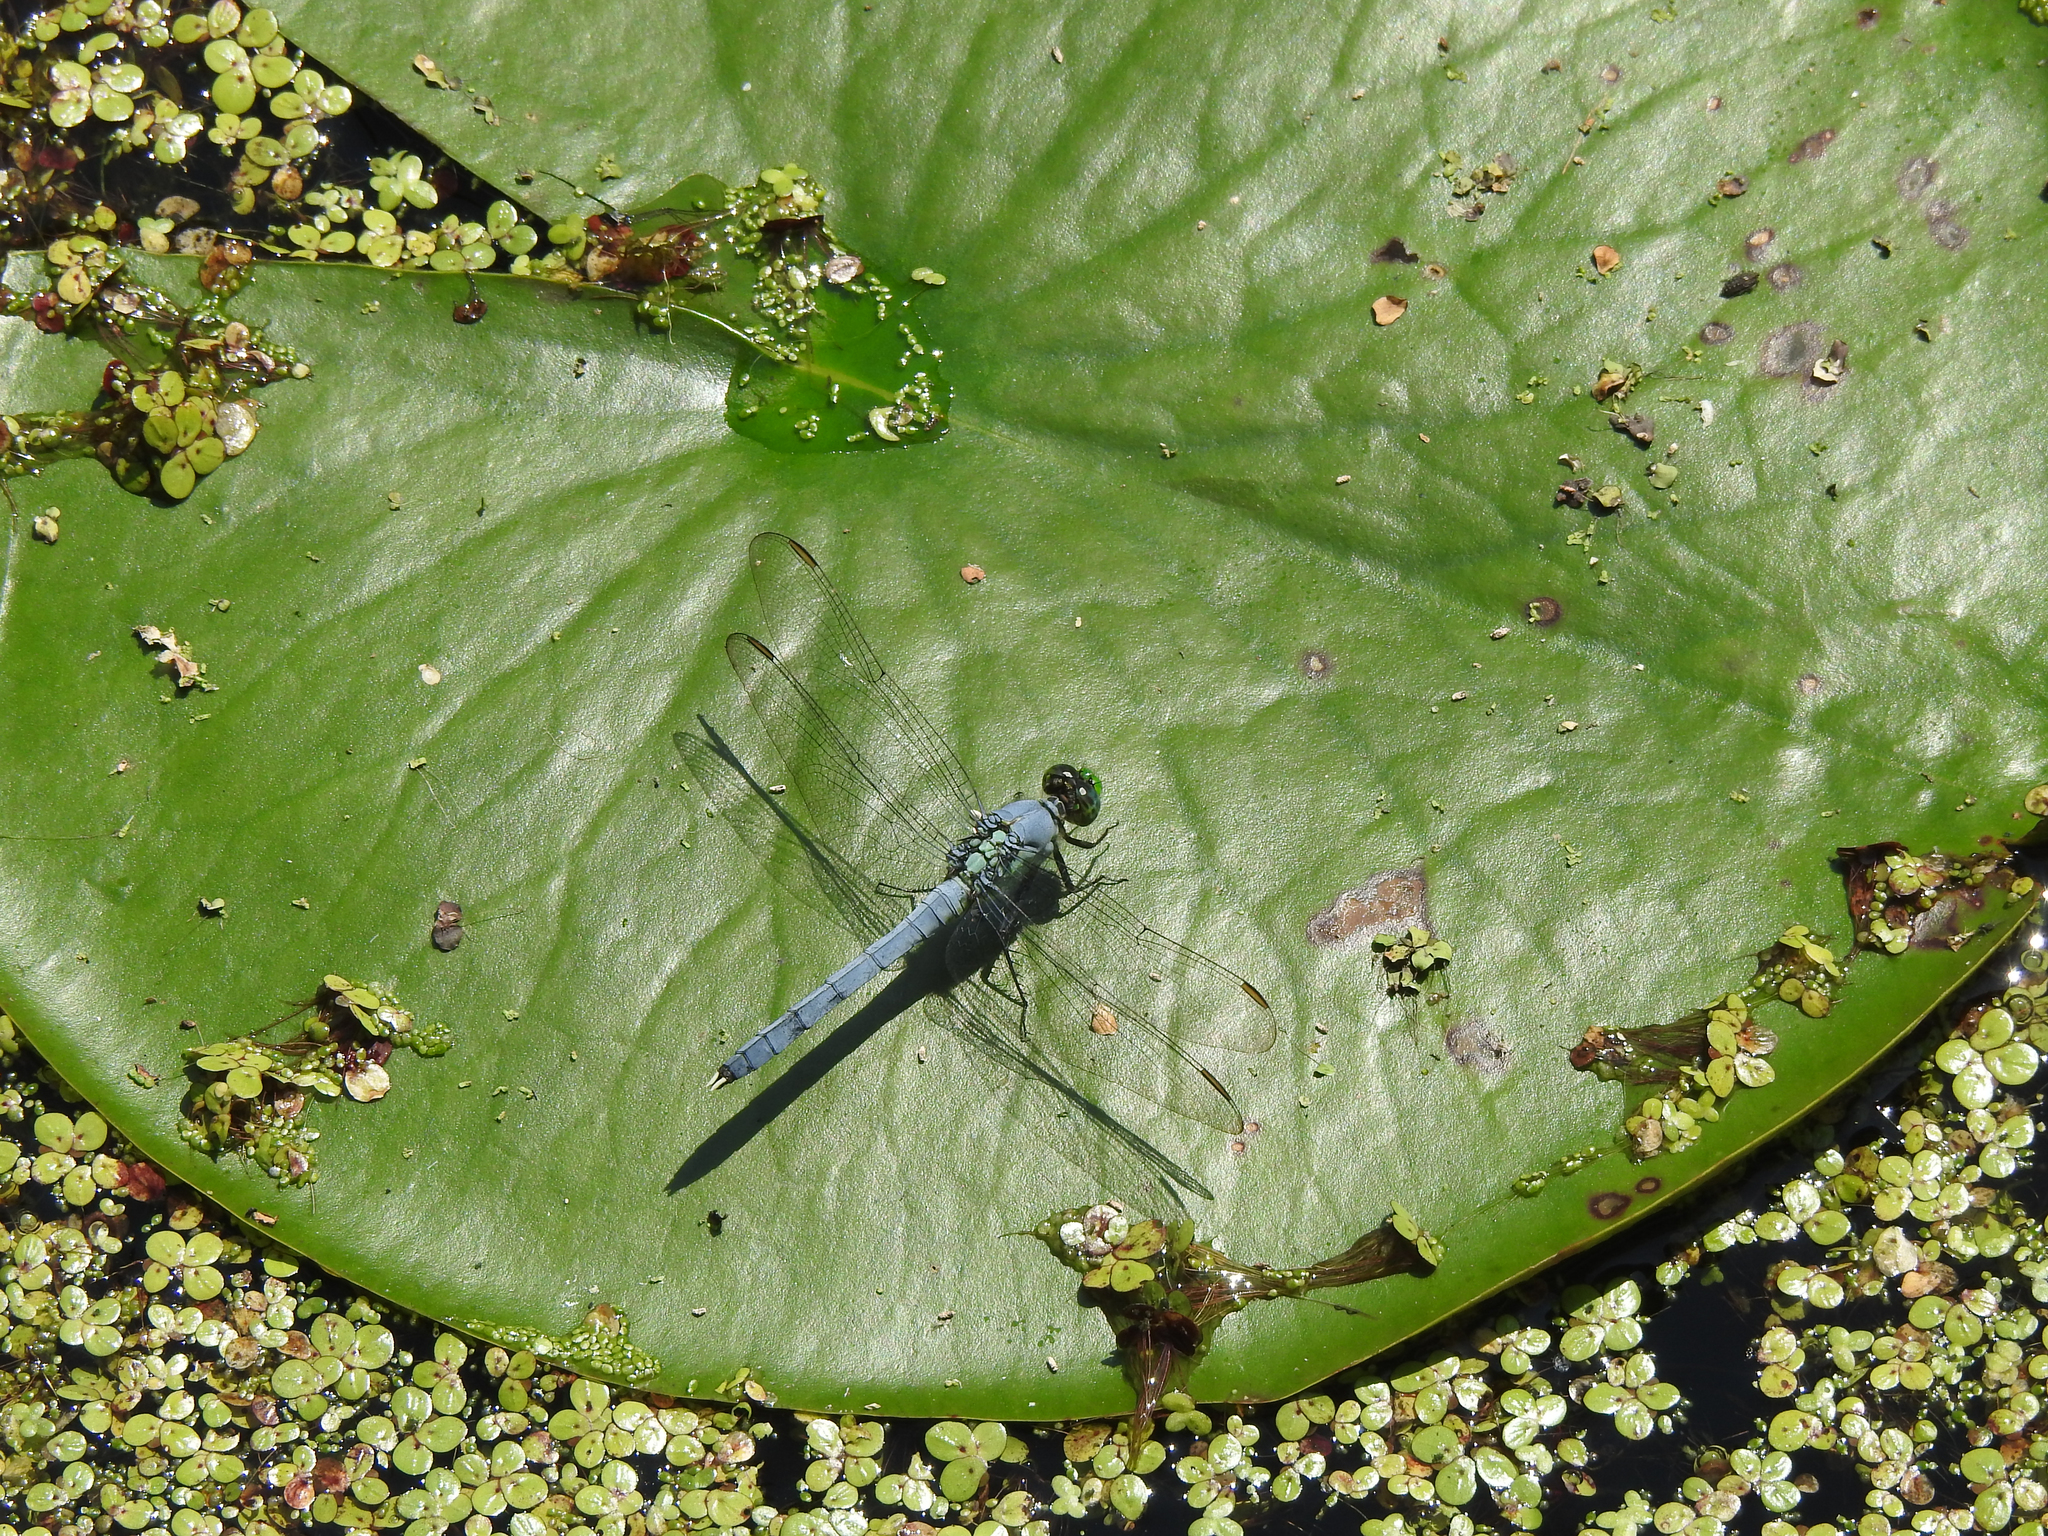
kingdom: Animalia
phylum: Arthropoda
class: Insecta
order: Odonata
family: Libellulidae
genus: Erythemis
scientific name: Erythemis simplicicollis
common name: Eastern pondhawk
